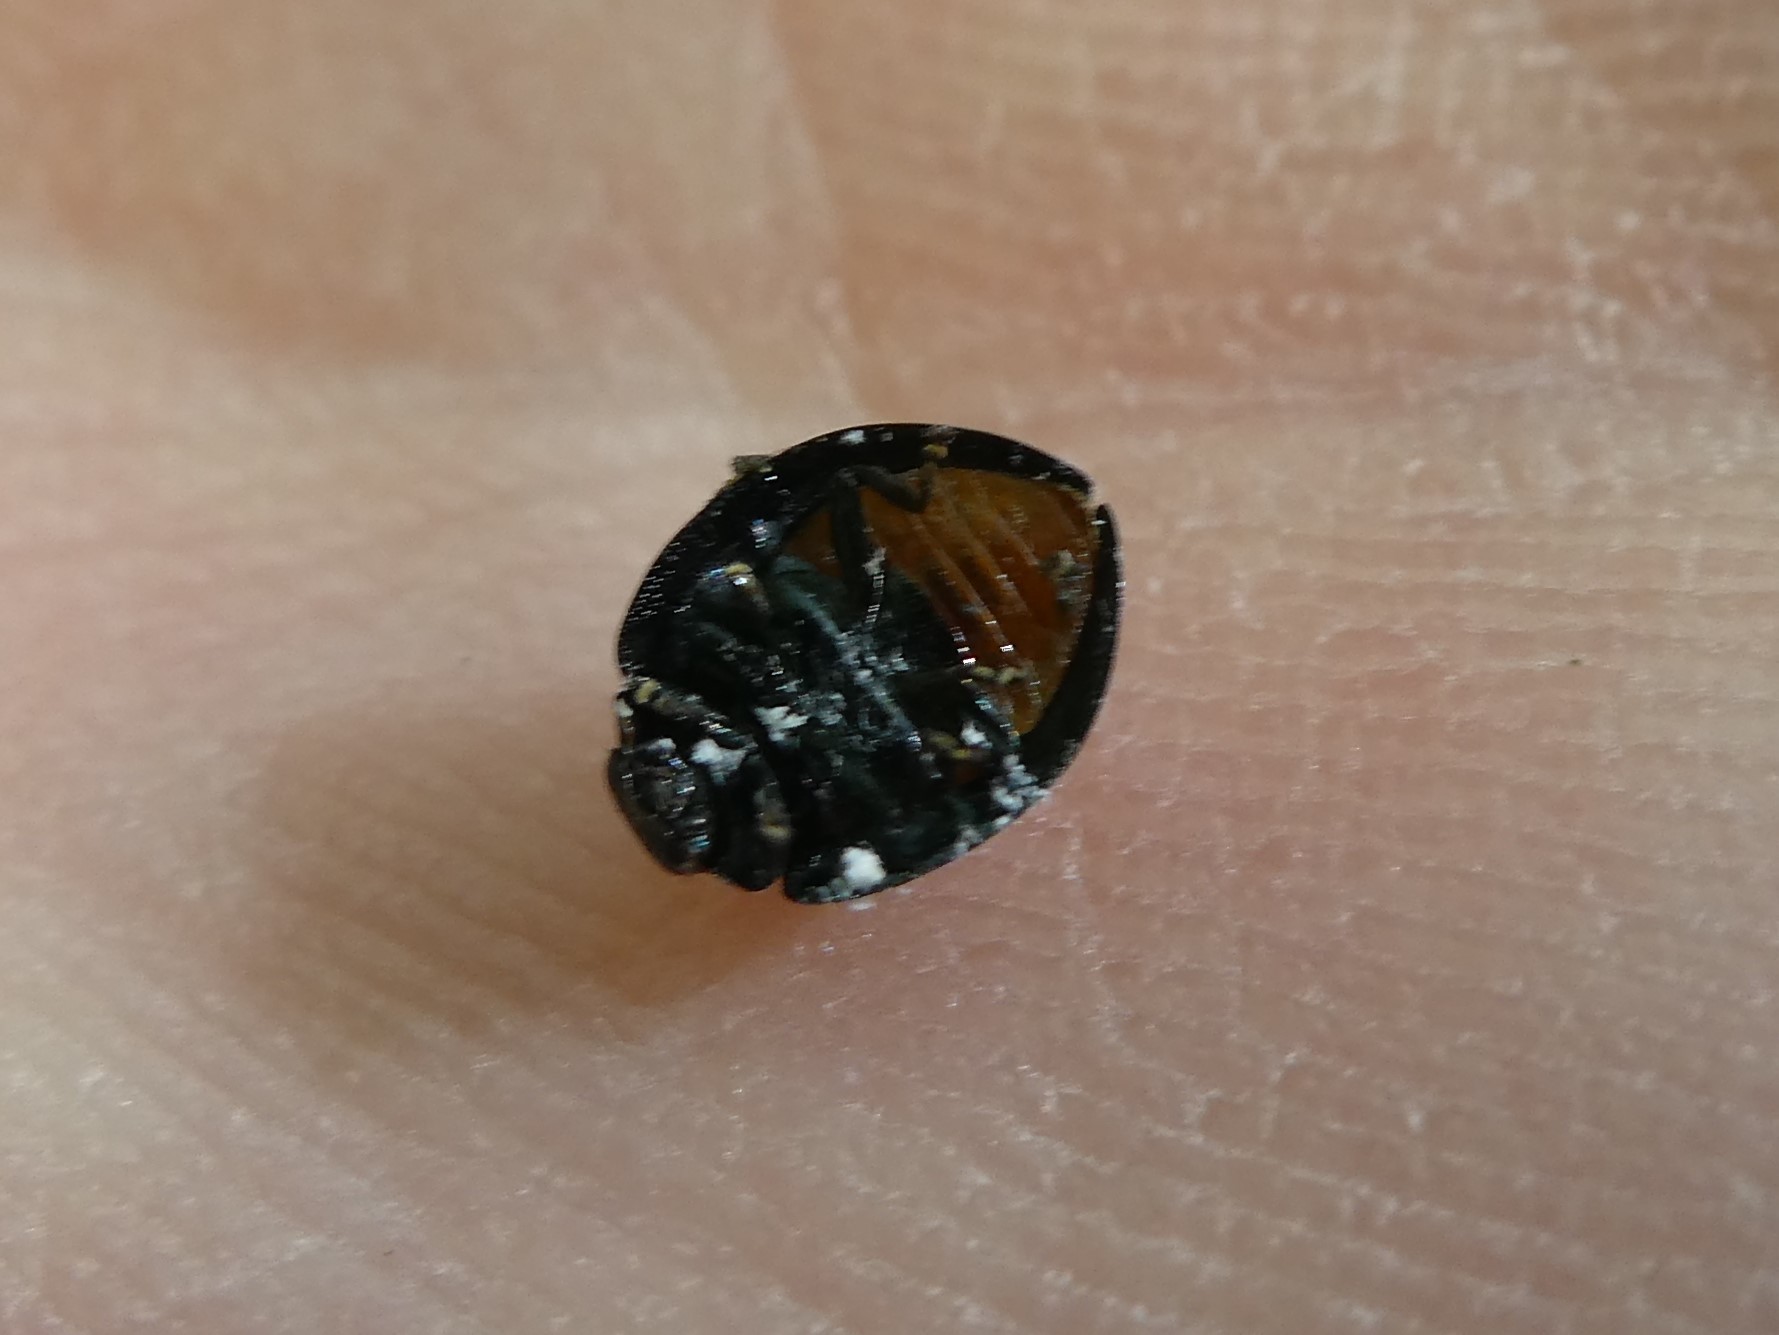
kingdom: Animalia
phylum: Arthropoda
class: Insecta
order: Coleoptera
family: Coccinellidae
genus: Chilocorus
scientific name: Chilocorus stigma
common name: Twicestabbed lady beetle
